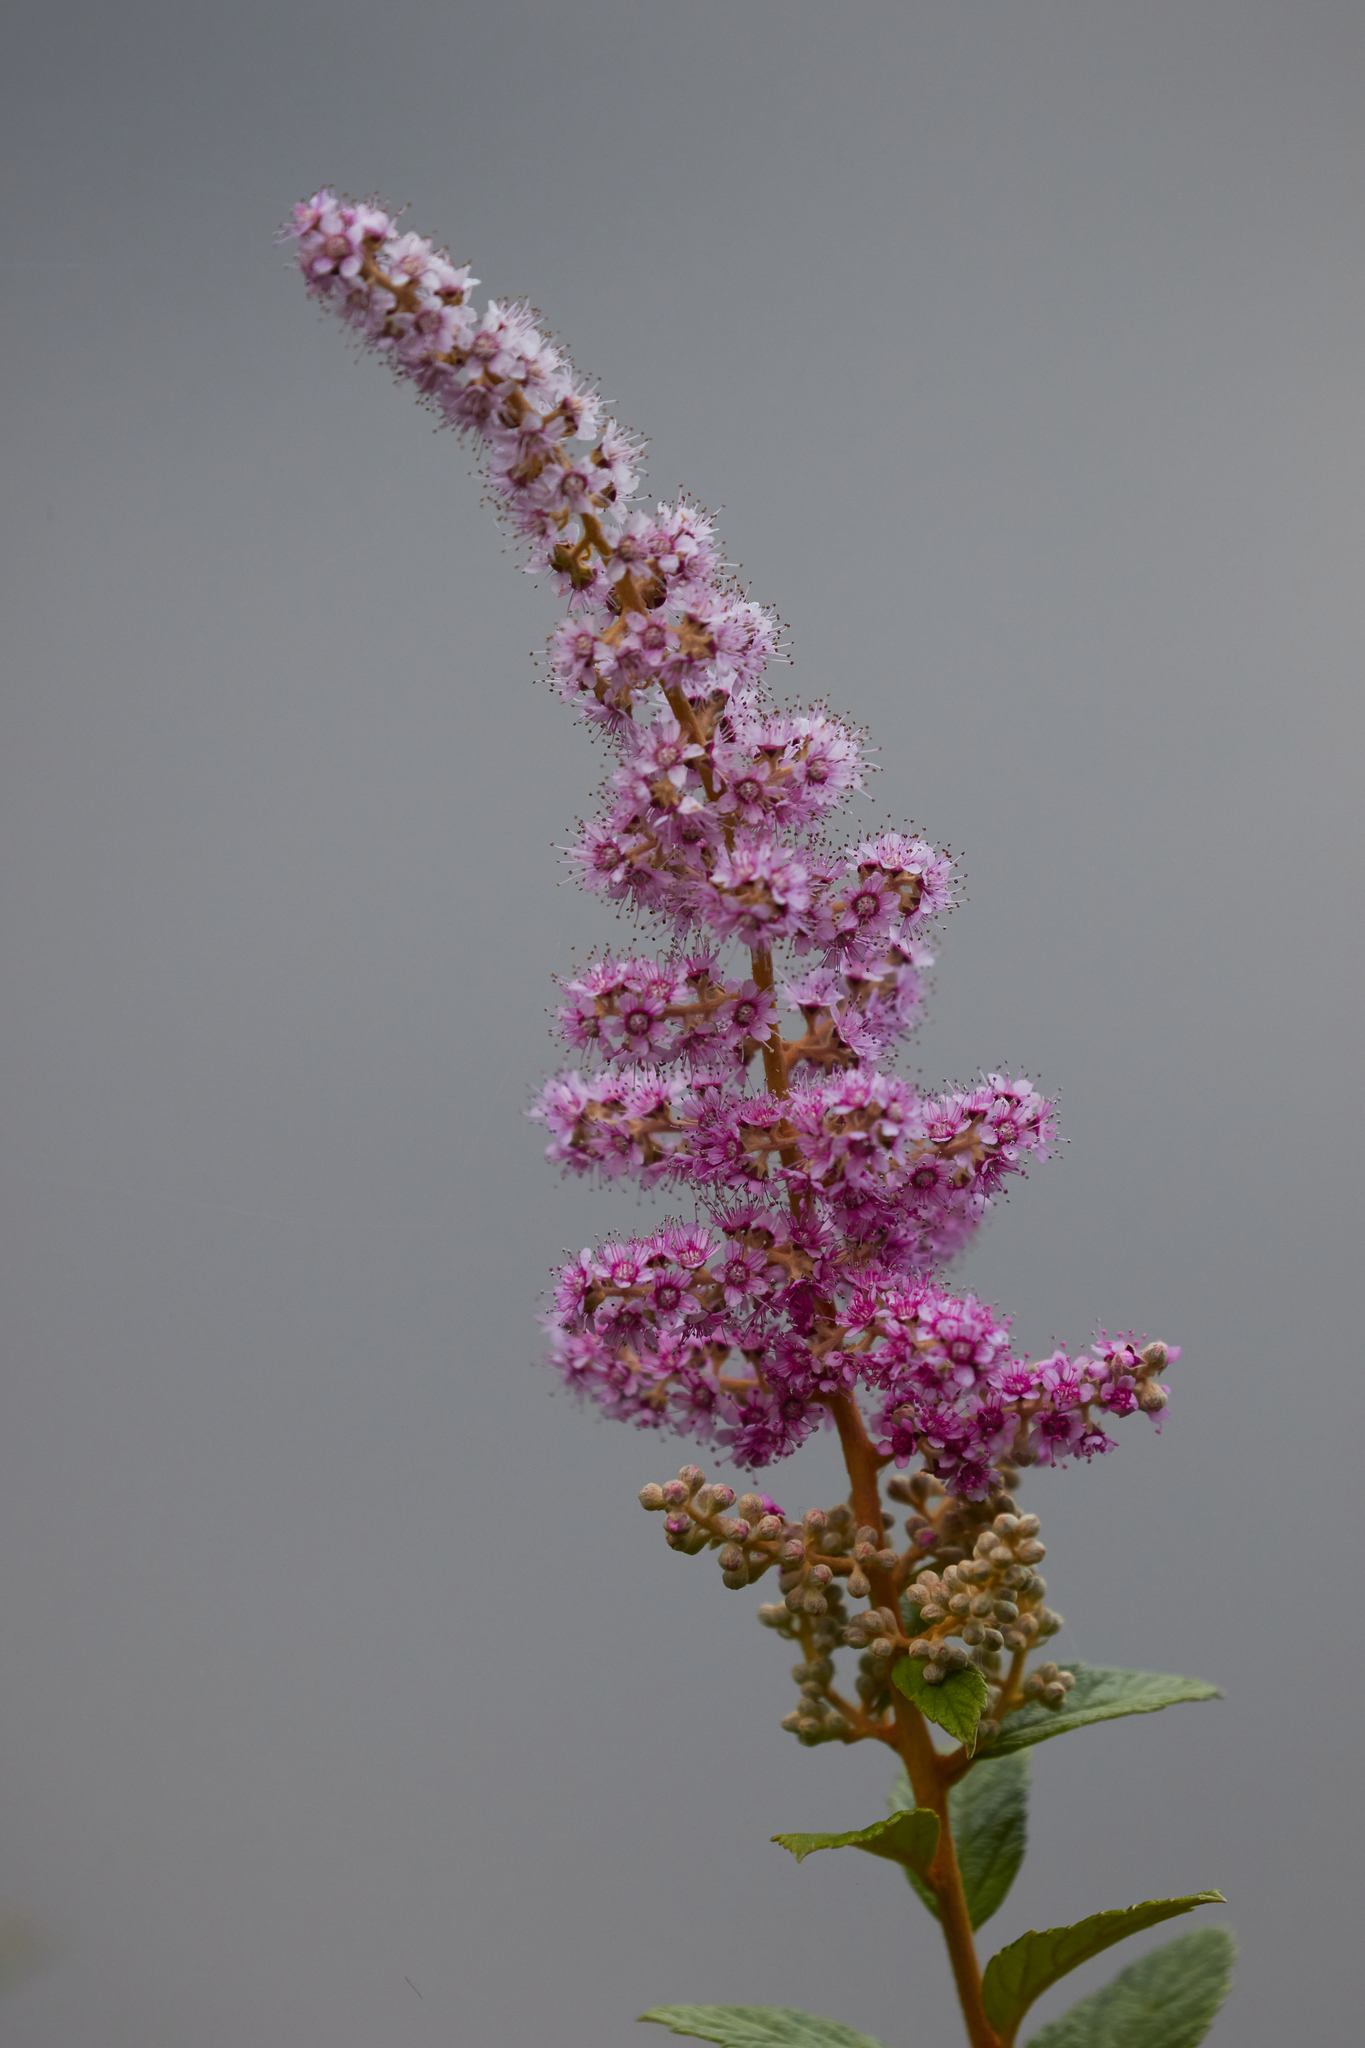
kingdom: Plantae
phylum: Tracheophyta
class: Magnoliopsida
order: Rosales
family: Rosaceae
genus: Spiraea
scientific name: Spiraea tomentosa
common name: Hardhack
